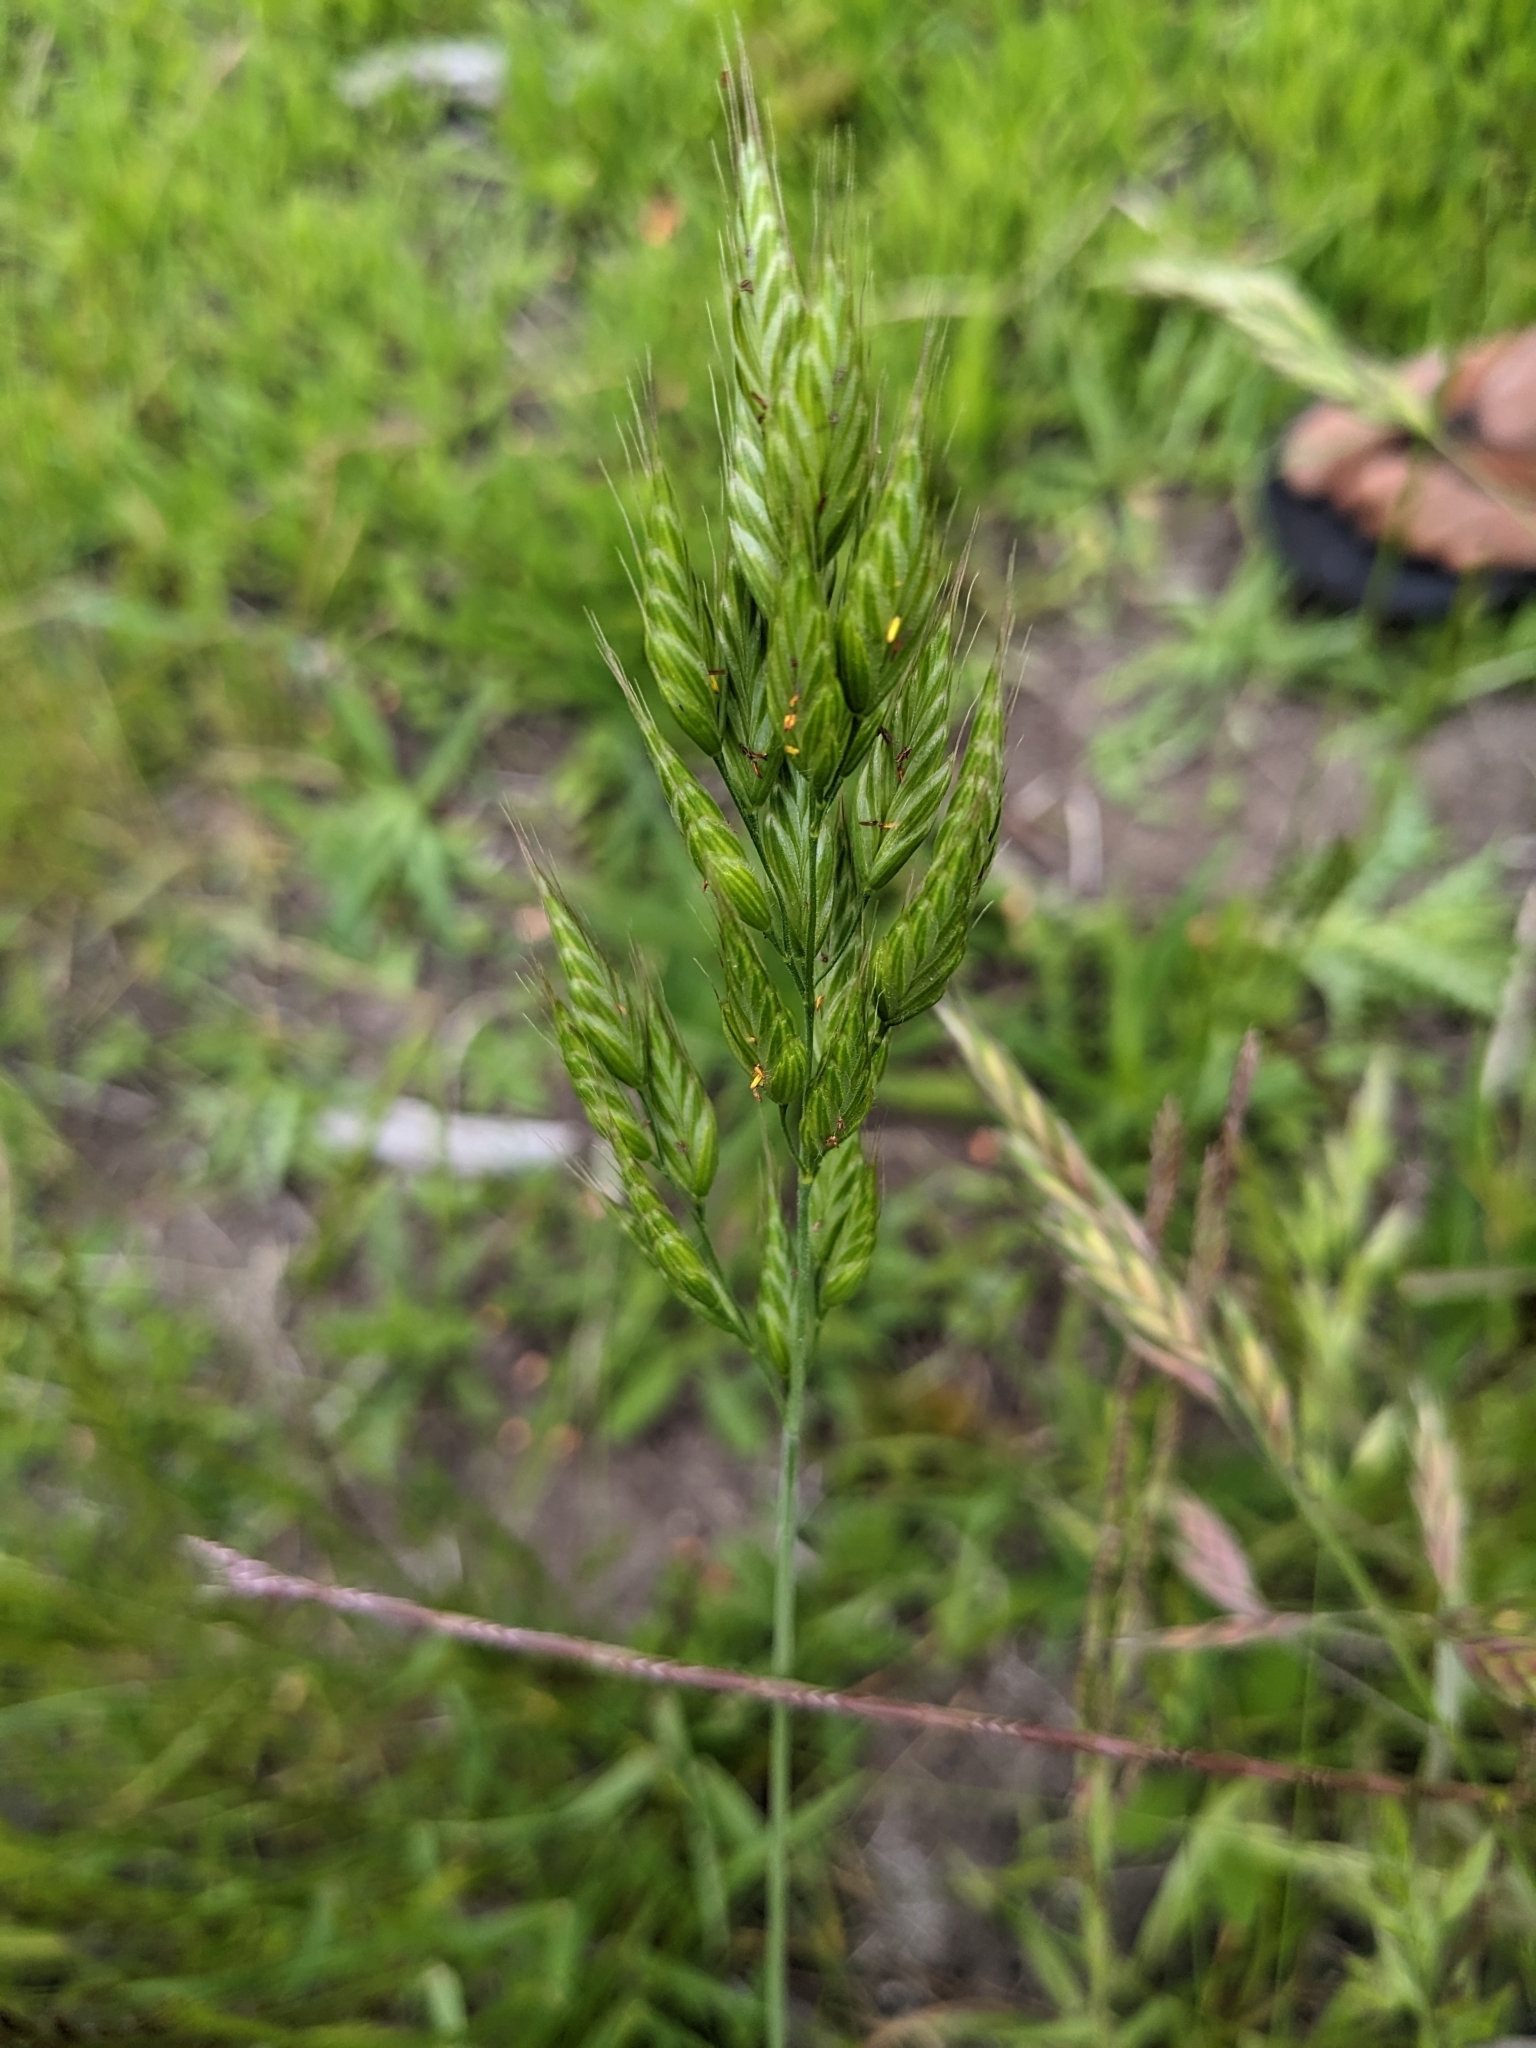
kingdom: Plantae
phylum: Tracheophyta
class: Liliopsida
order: Poales
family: Poaceae
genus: Bromus
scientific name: Bromus hordeaceus
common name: Soft brome
